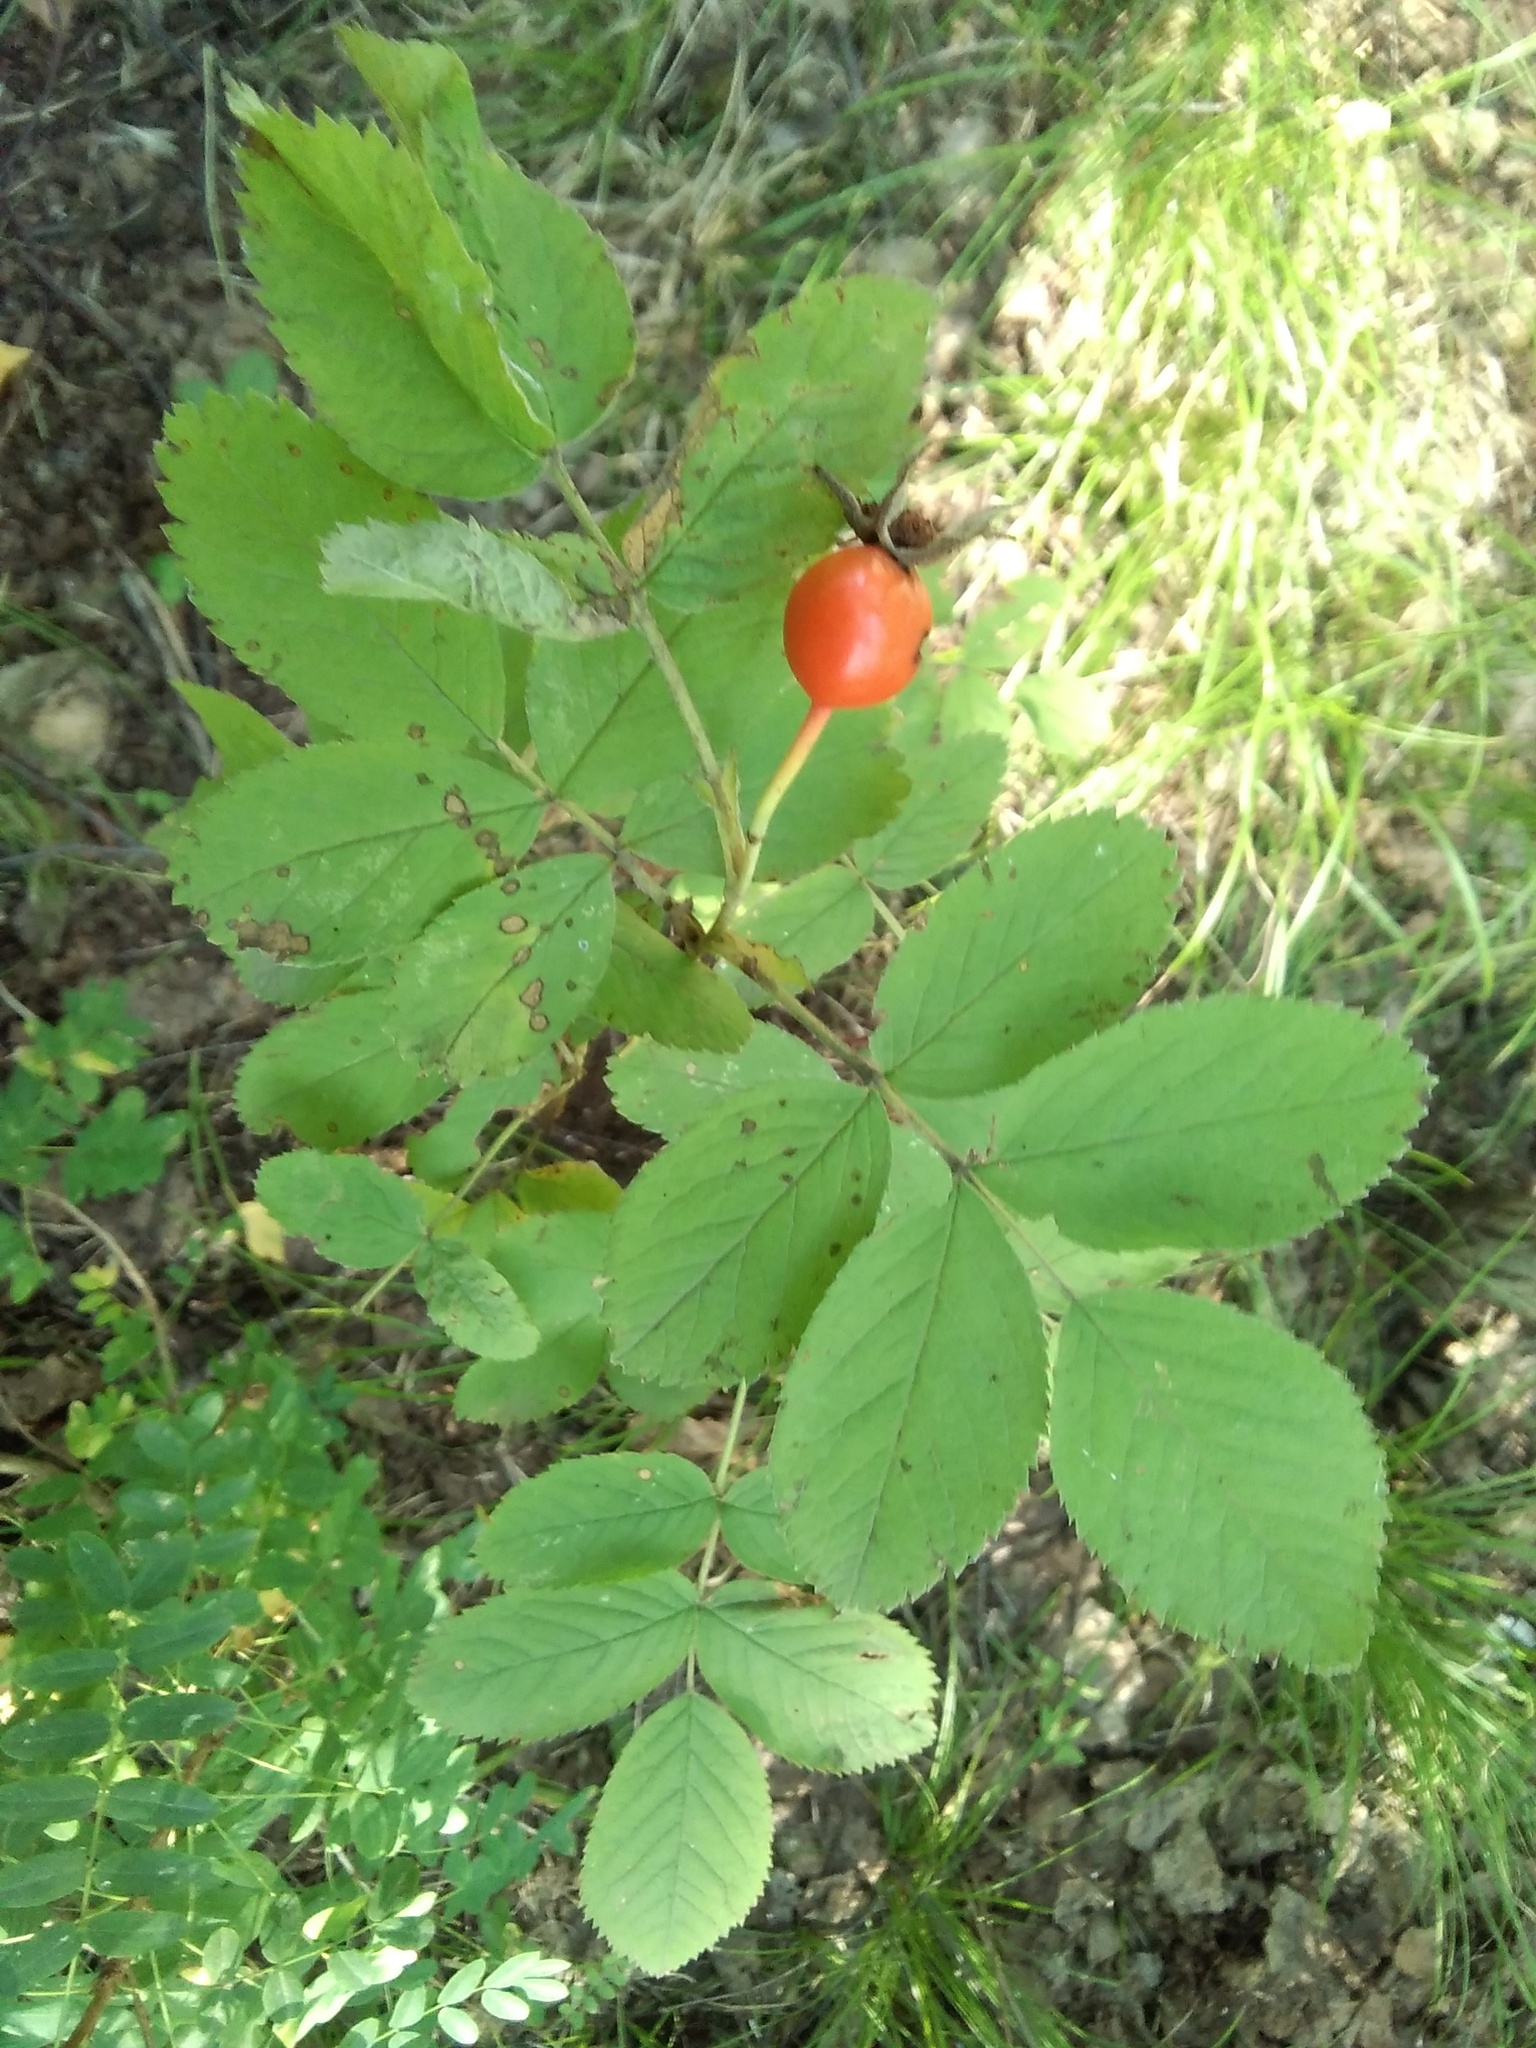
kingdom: Plantae
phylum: Tracheophyta
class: Magnoliopsida
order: Rosales
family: Rosaceae
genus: Rosa
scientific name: Rosa
